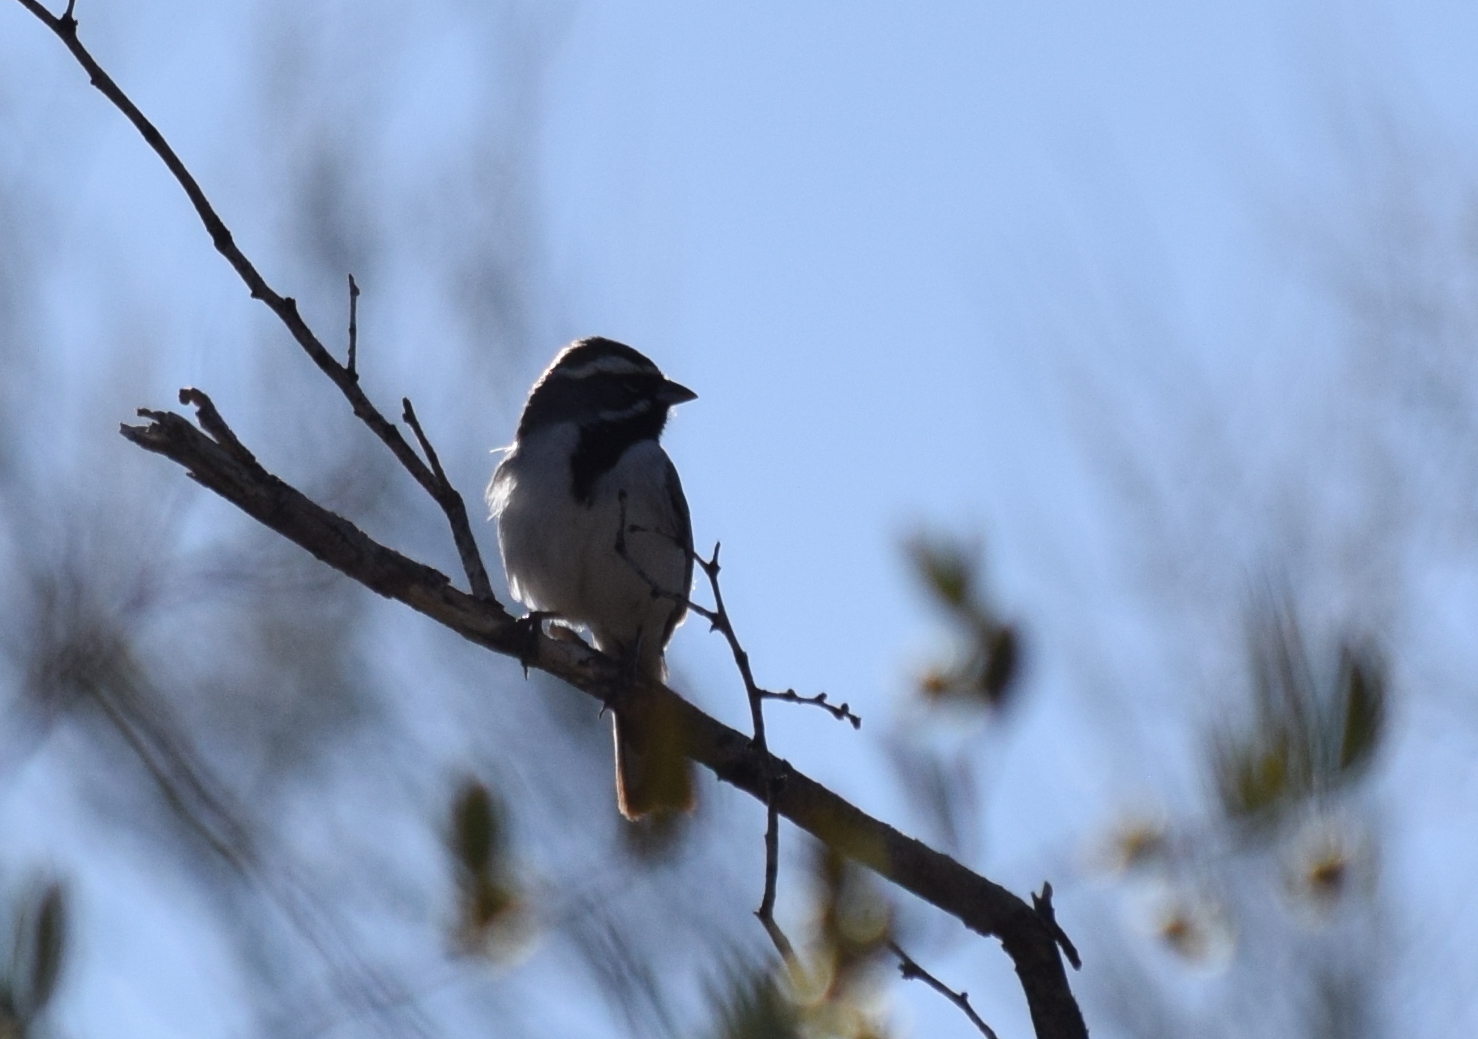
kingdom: Animalia
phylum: Chordata
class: Aves
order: Passeriformes
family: Passerellidae
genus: Amphispiza
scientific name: Amphispiza bilineata
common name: Black-throated sparrow
